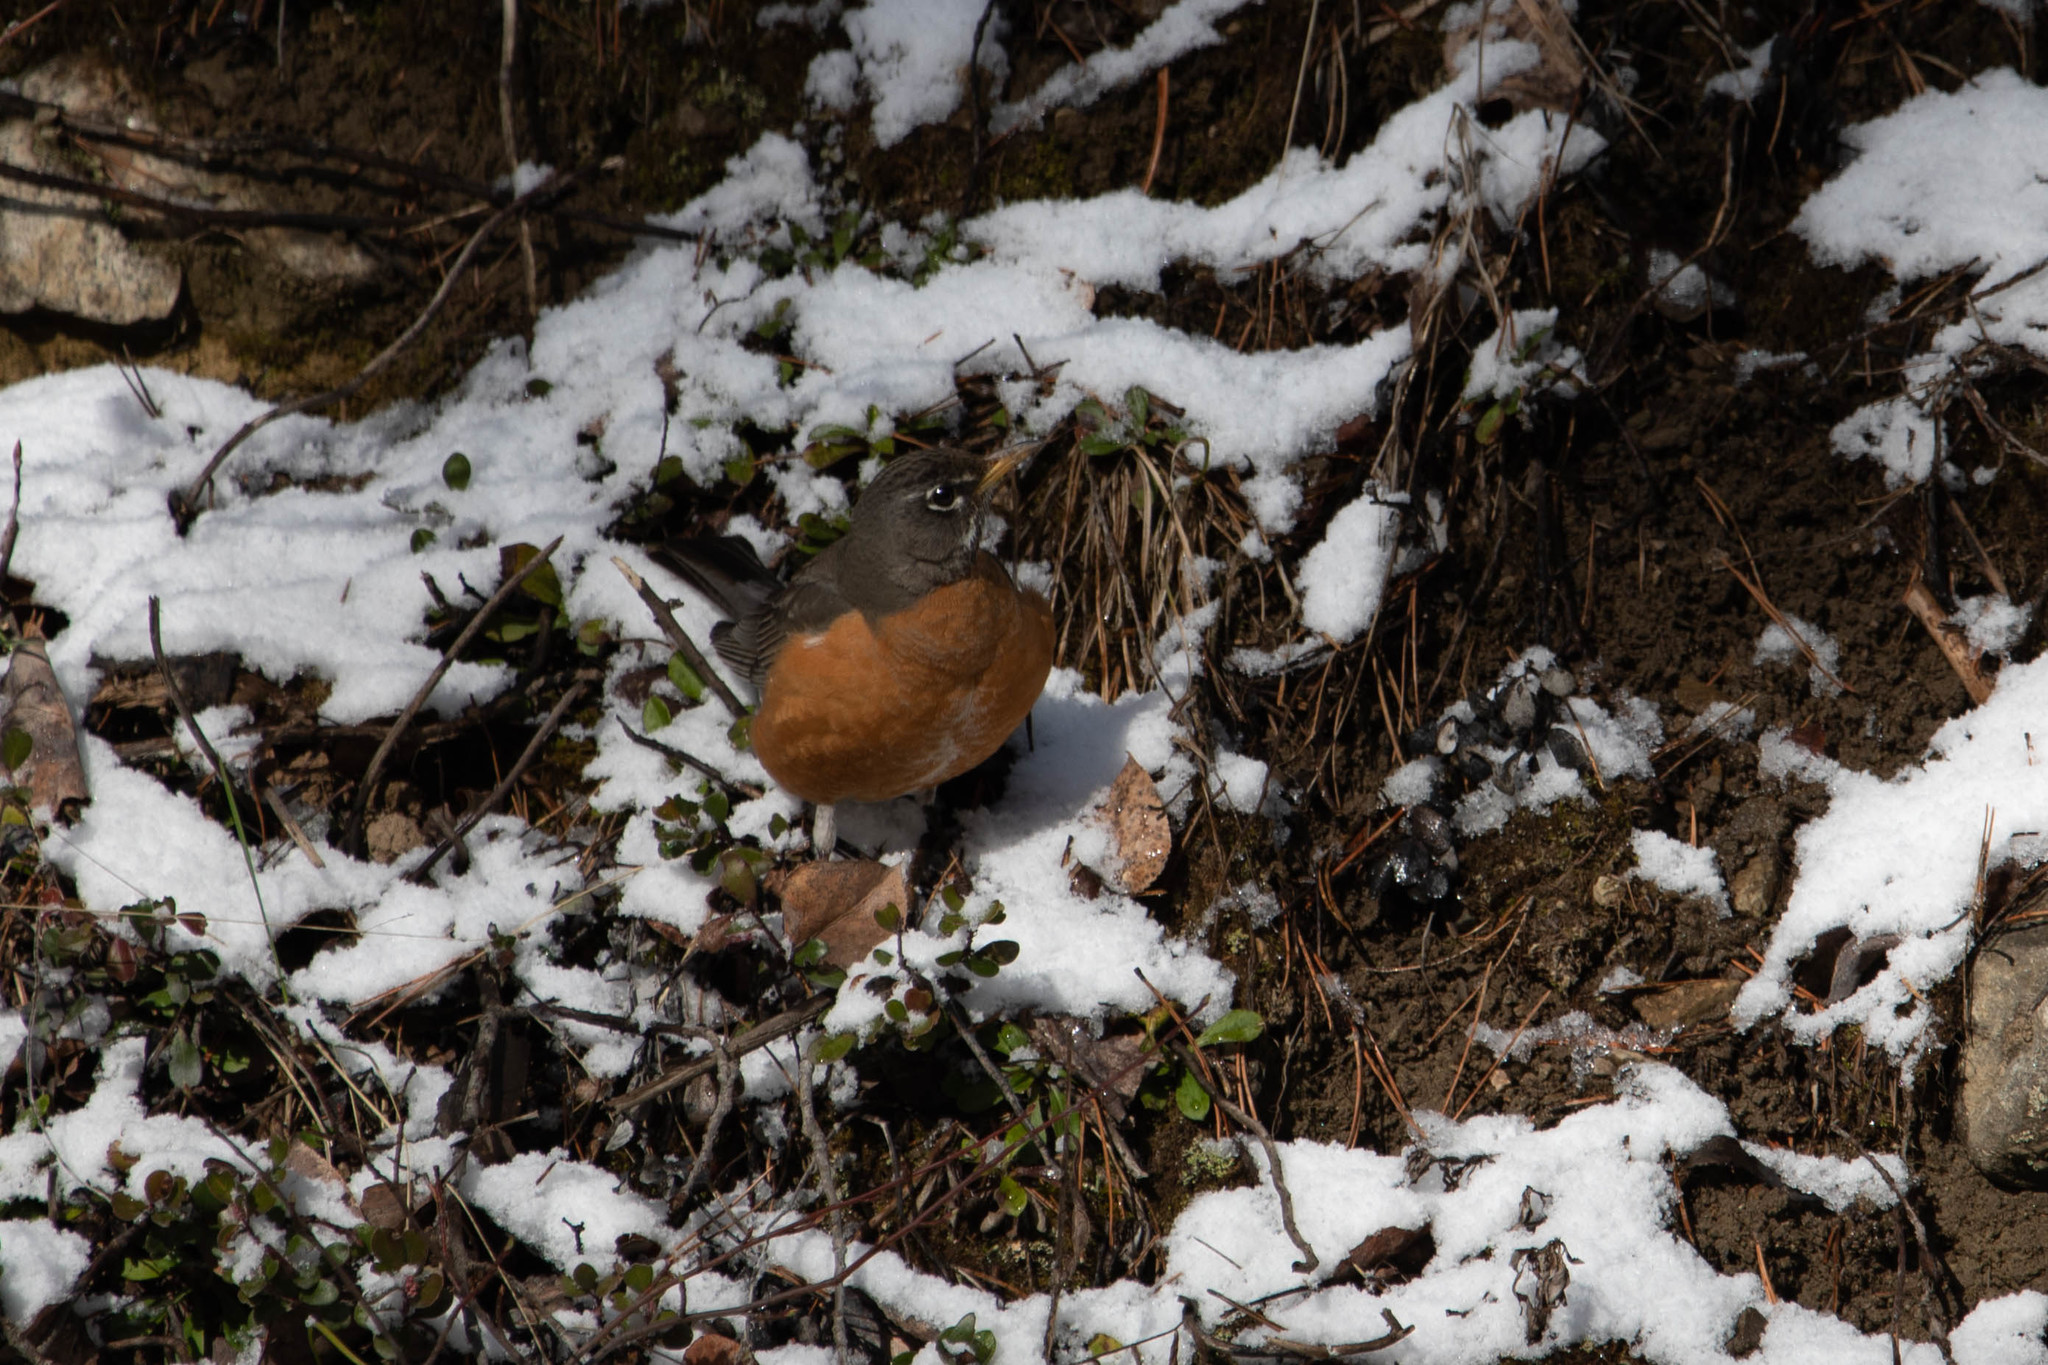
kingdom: Animalia
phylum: Chordata
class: Aves
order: Passeriformes
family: Turdidae
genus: Turdus
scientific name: Turdus migratorius
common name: American robin
